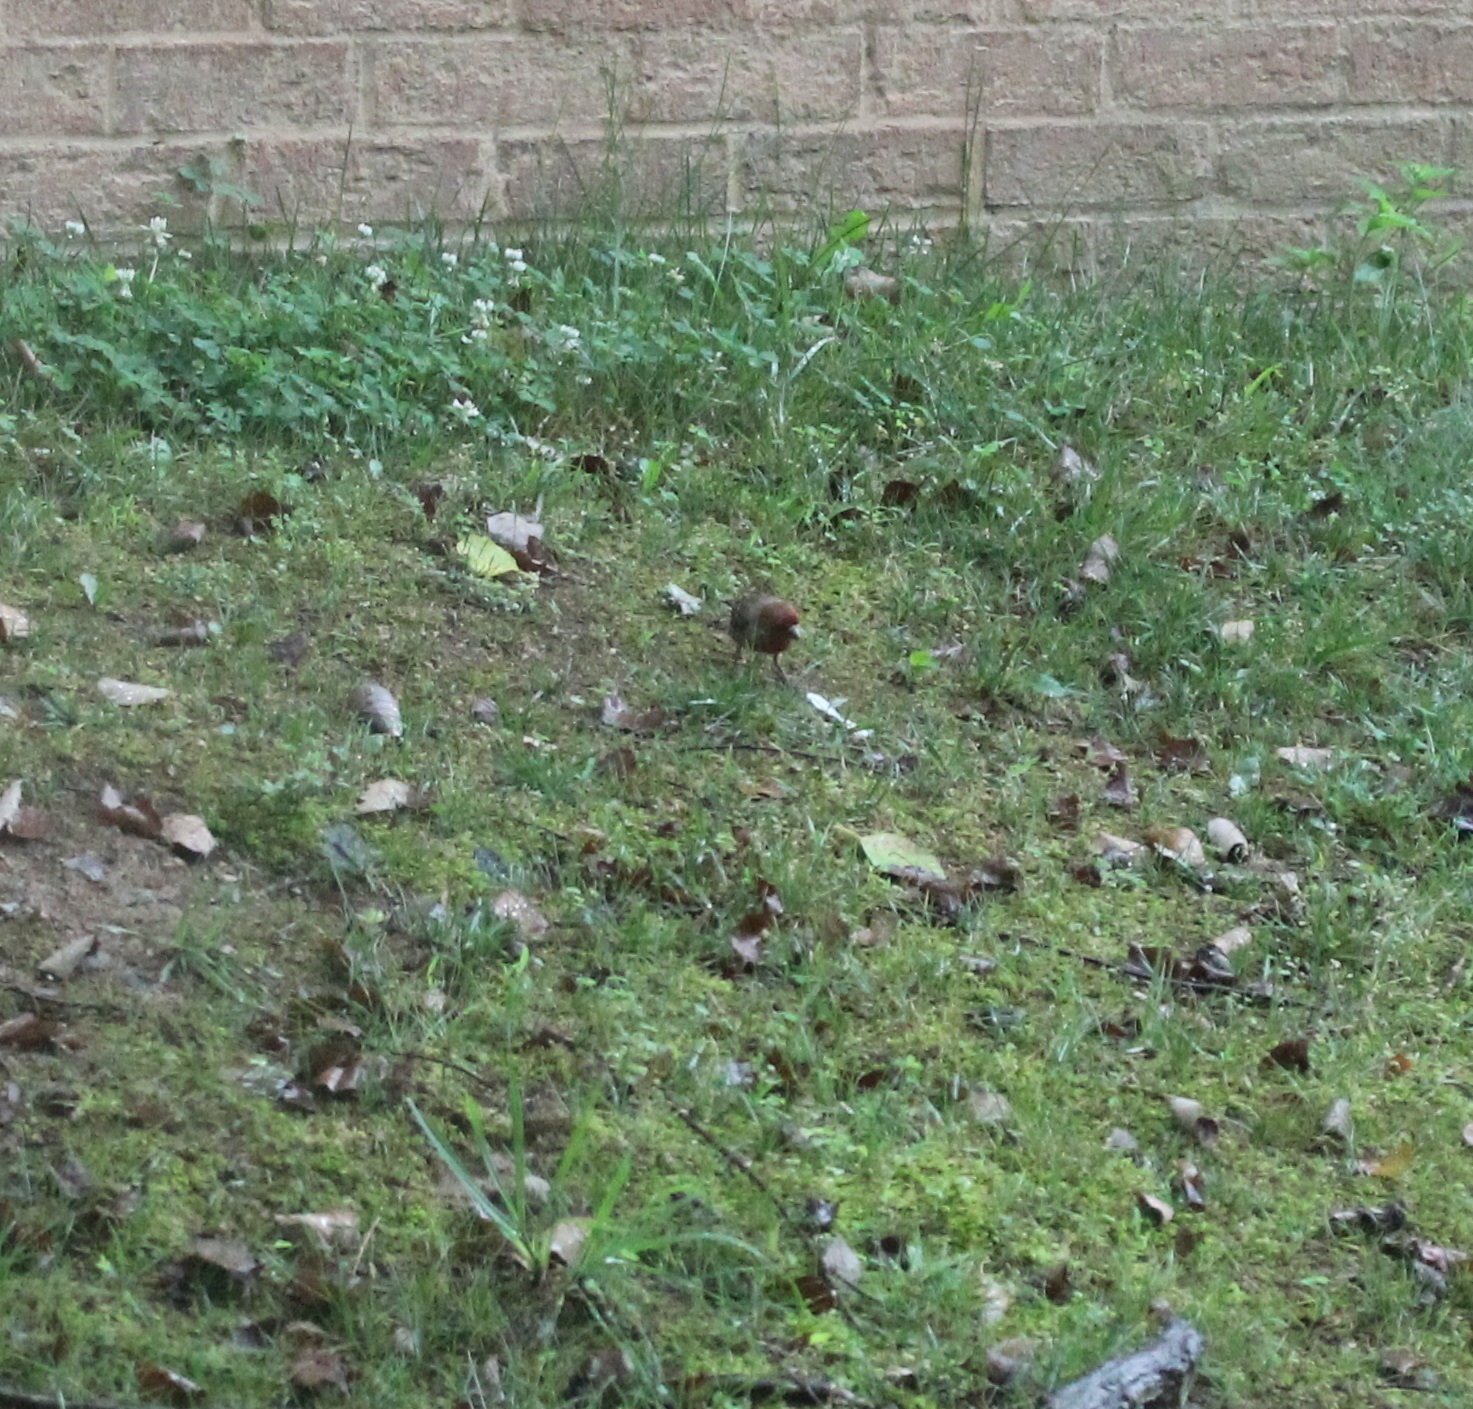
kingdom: Animalia
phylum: Chordata
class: Aves
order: Passeriformes
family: Fringillidae
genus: Haemorhous
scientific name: Haemorhous mexicanus
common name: House finch
